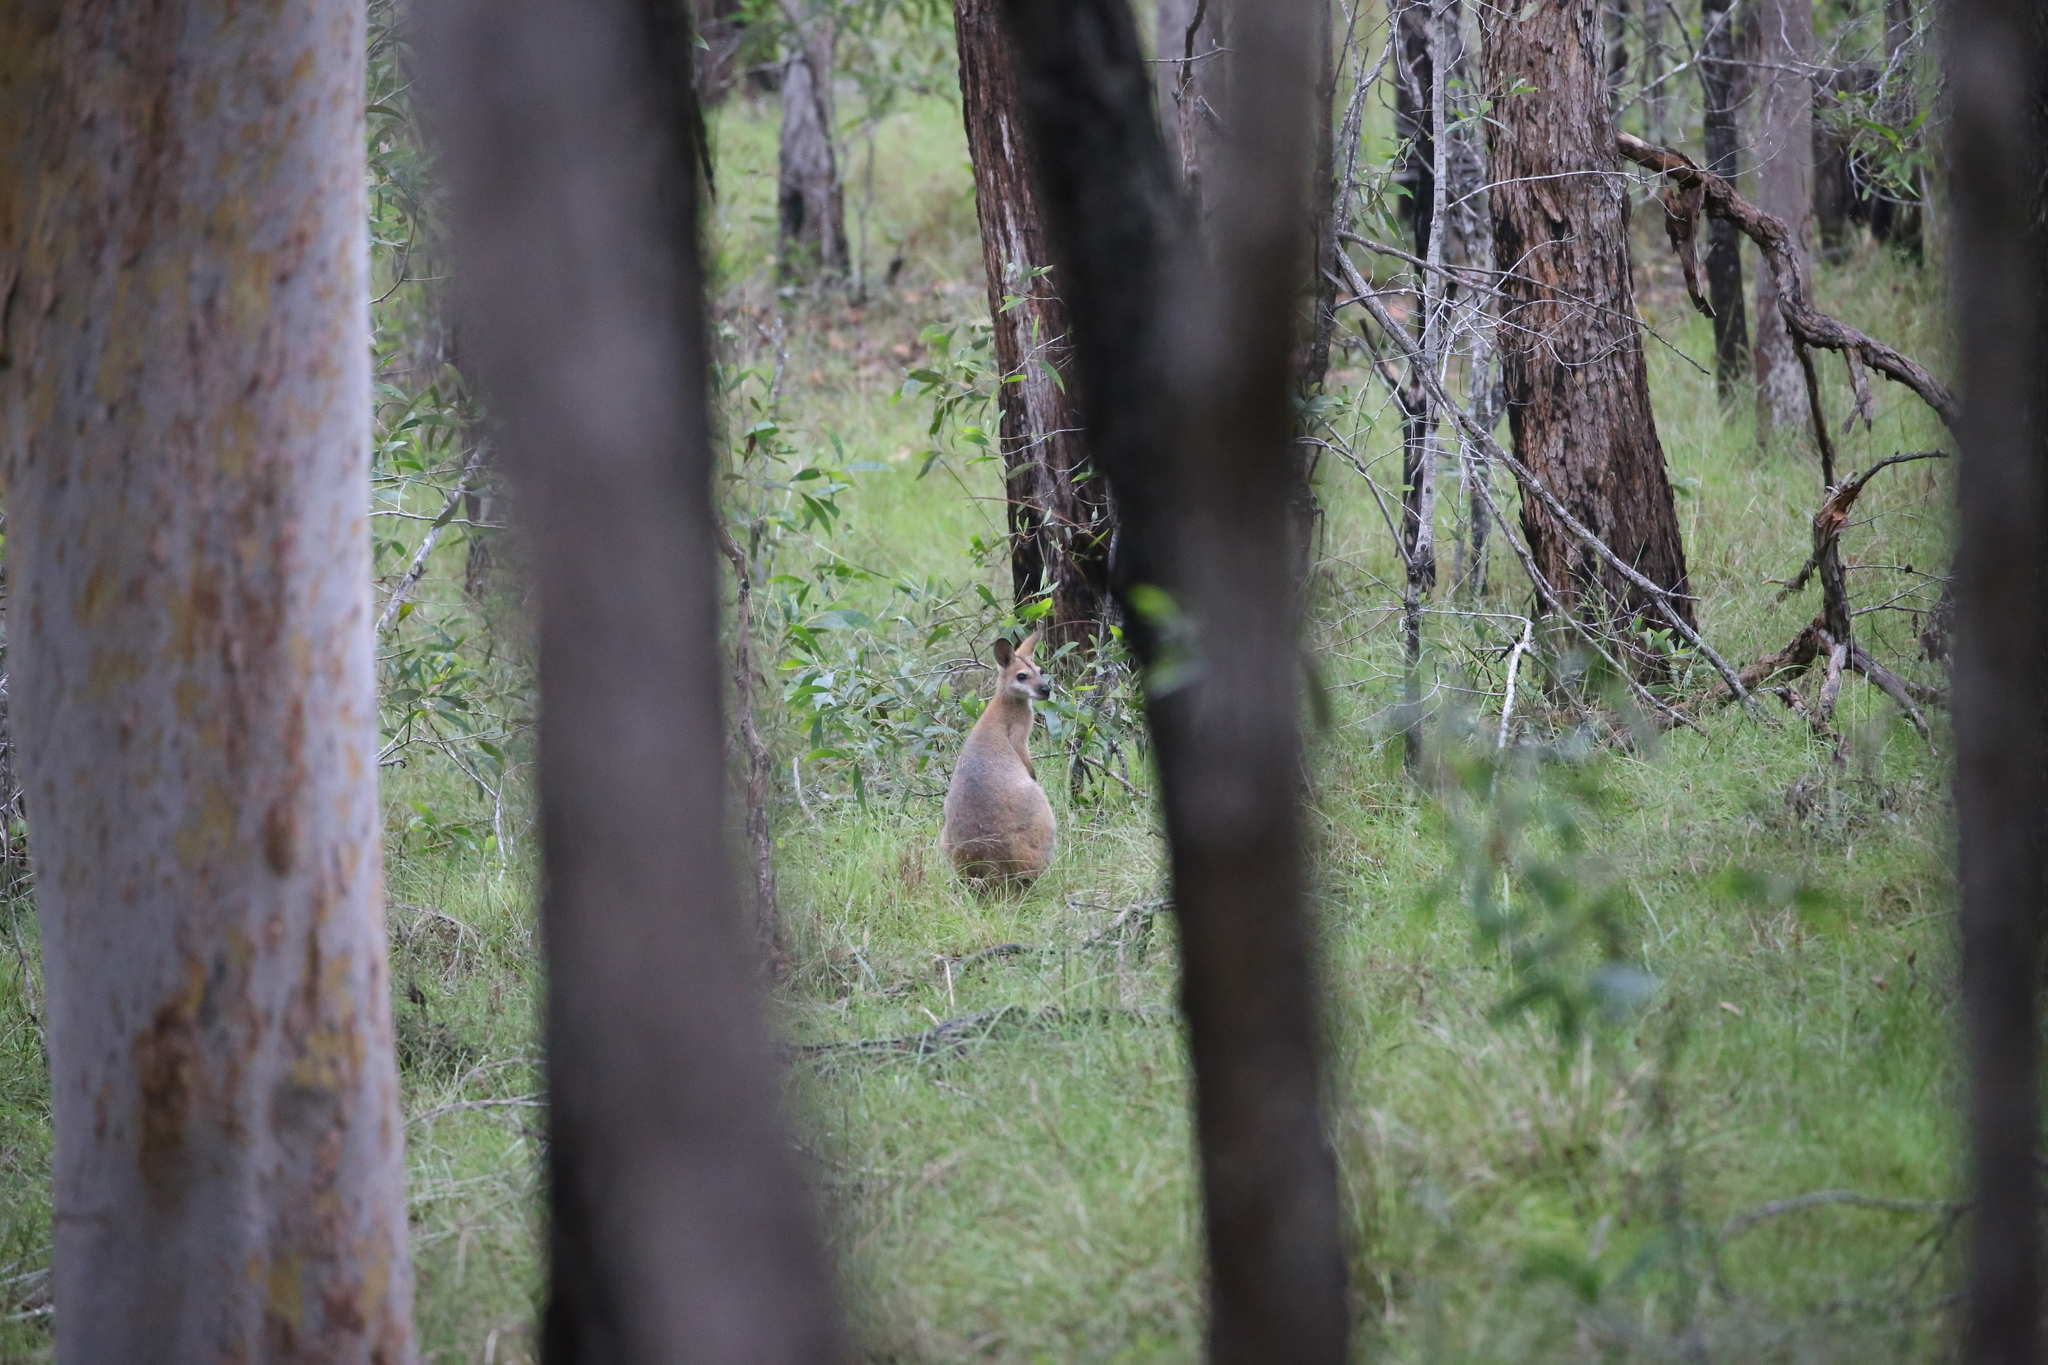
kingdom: Animalia
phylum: Chordata
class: Mammalia
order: Diprotodontia
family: Macropodidae
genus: Notamacropus
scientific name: Notamacropus rufogriseus
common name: Red-necked wallaby
